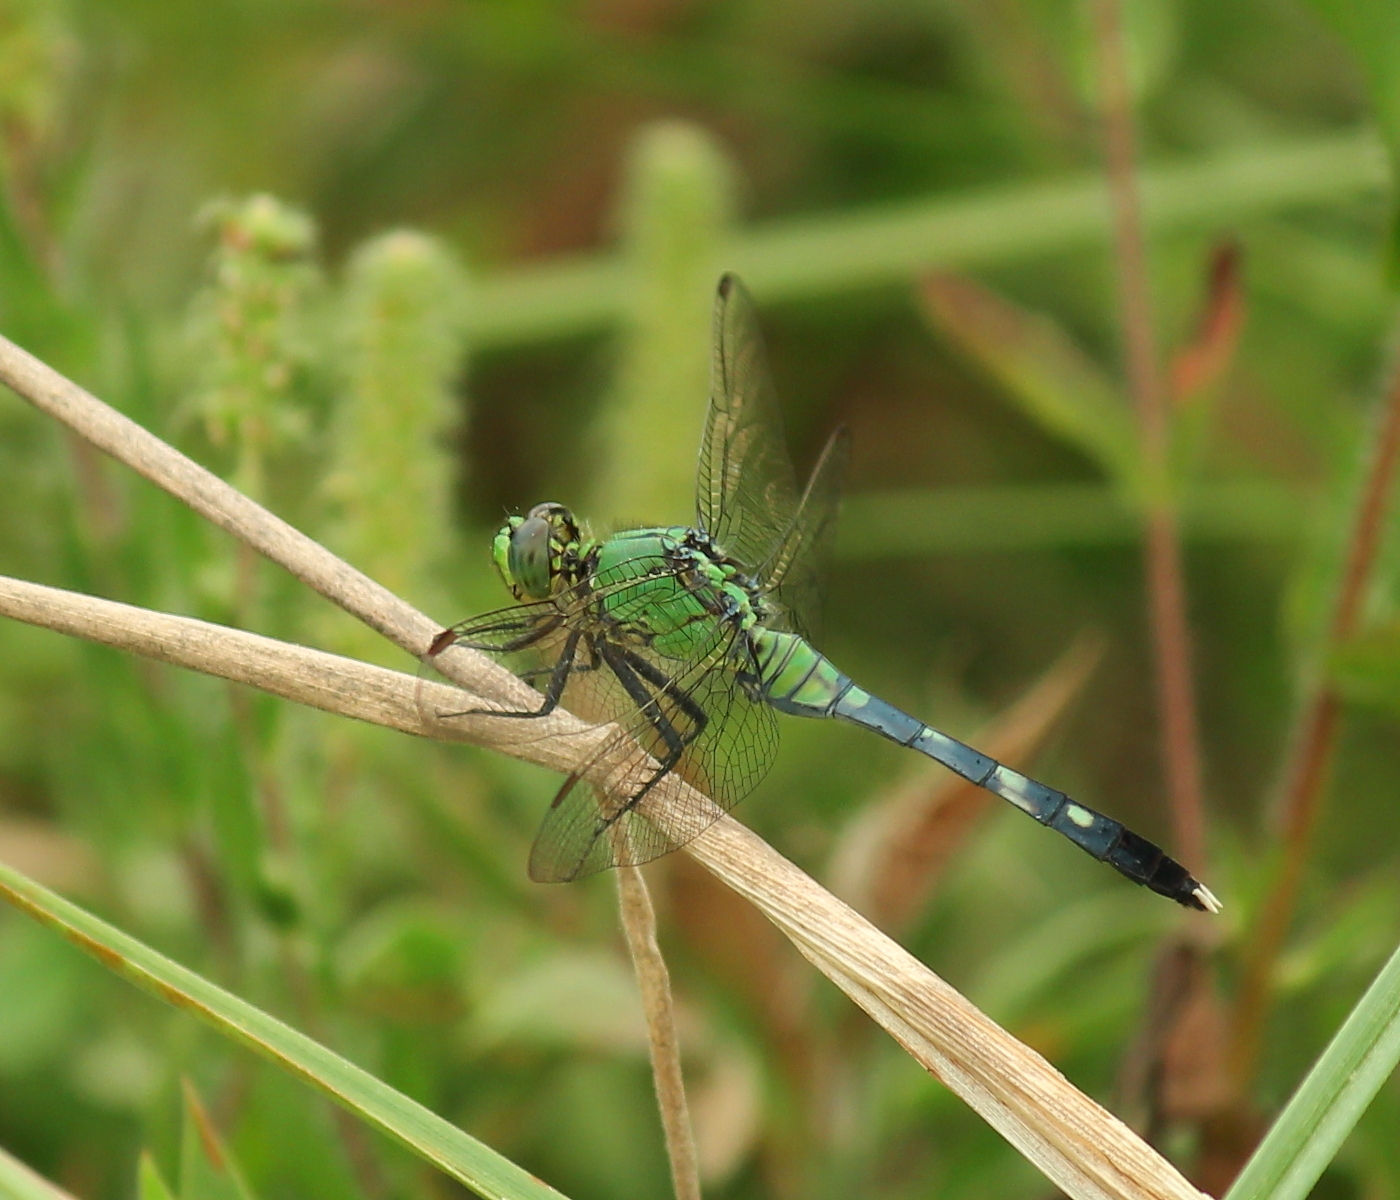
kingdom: Animalia
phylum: Arthropoda
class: Insecta
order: Odonata
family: Libellulidae
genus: Erythemis
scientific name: Erythemis simplicicollis
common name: Eastern pondhawk
